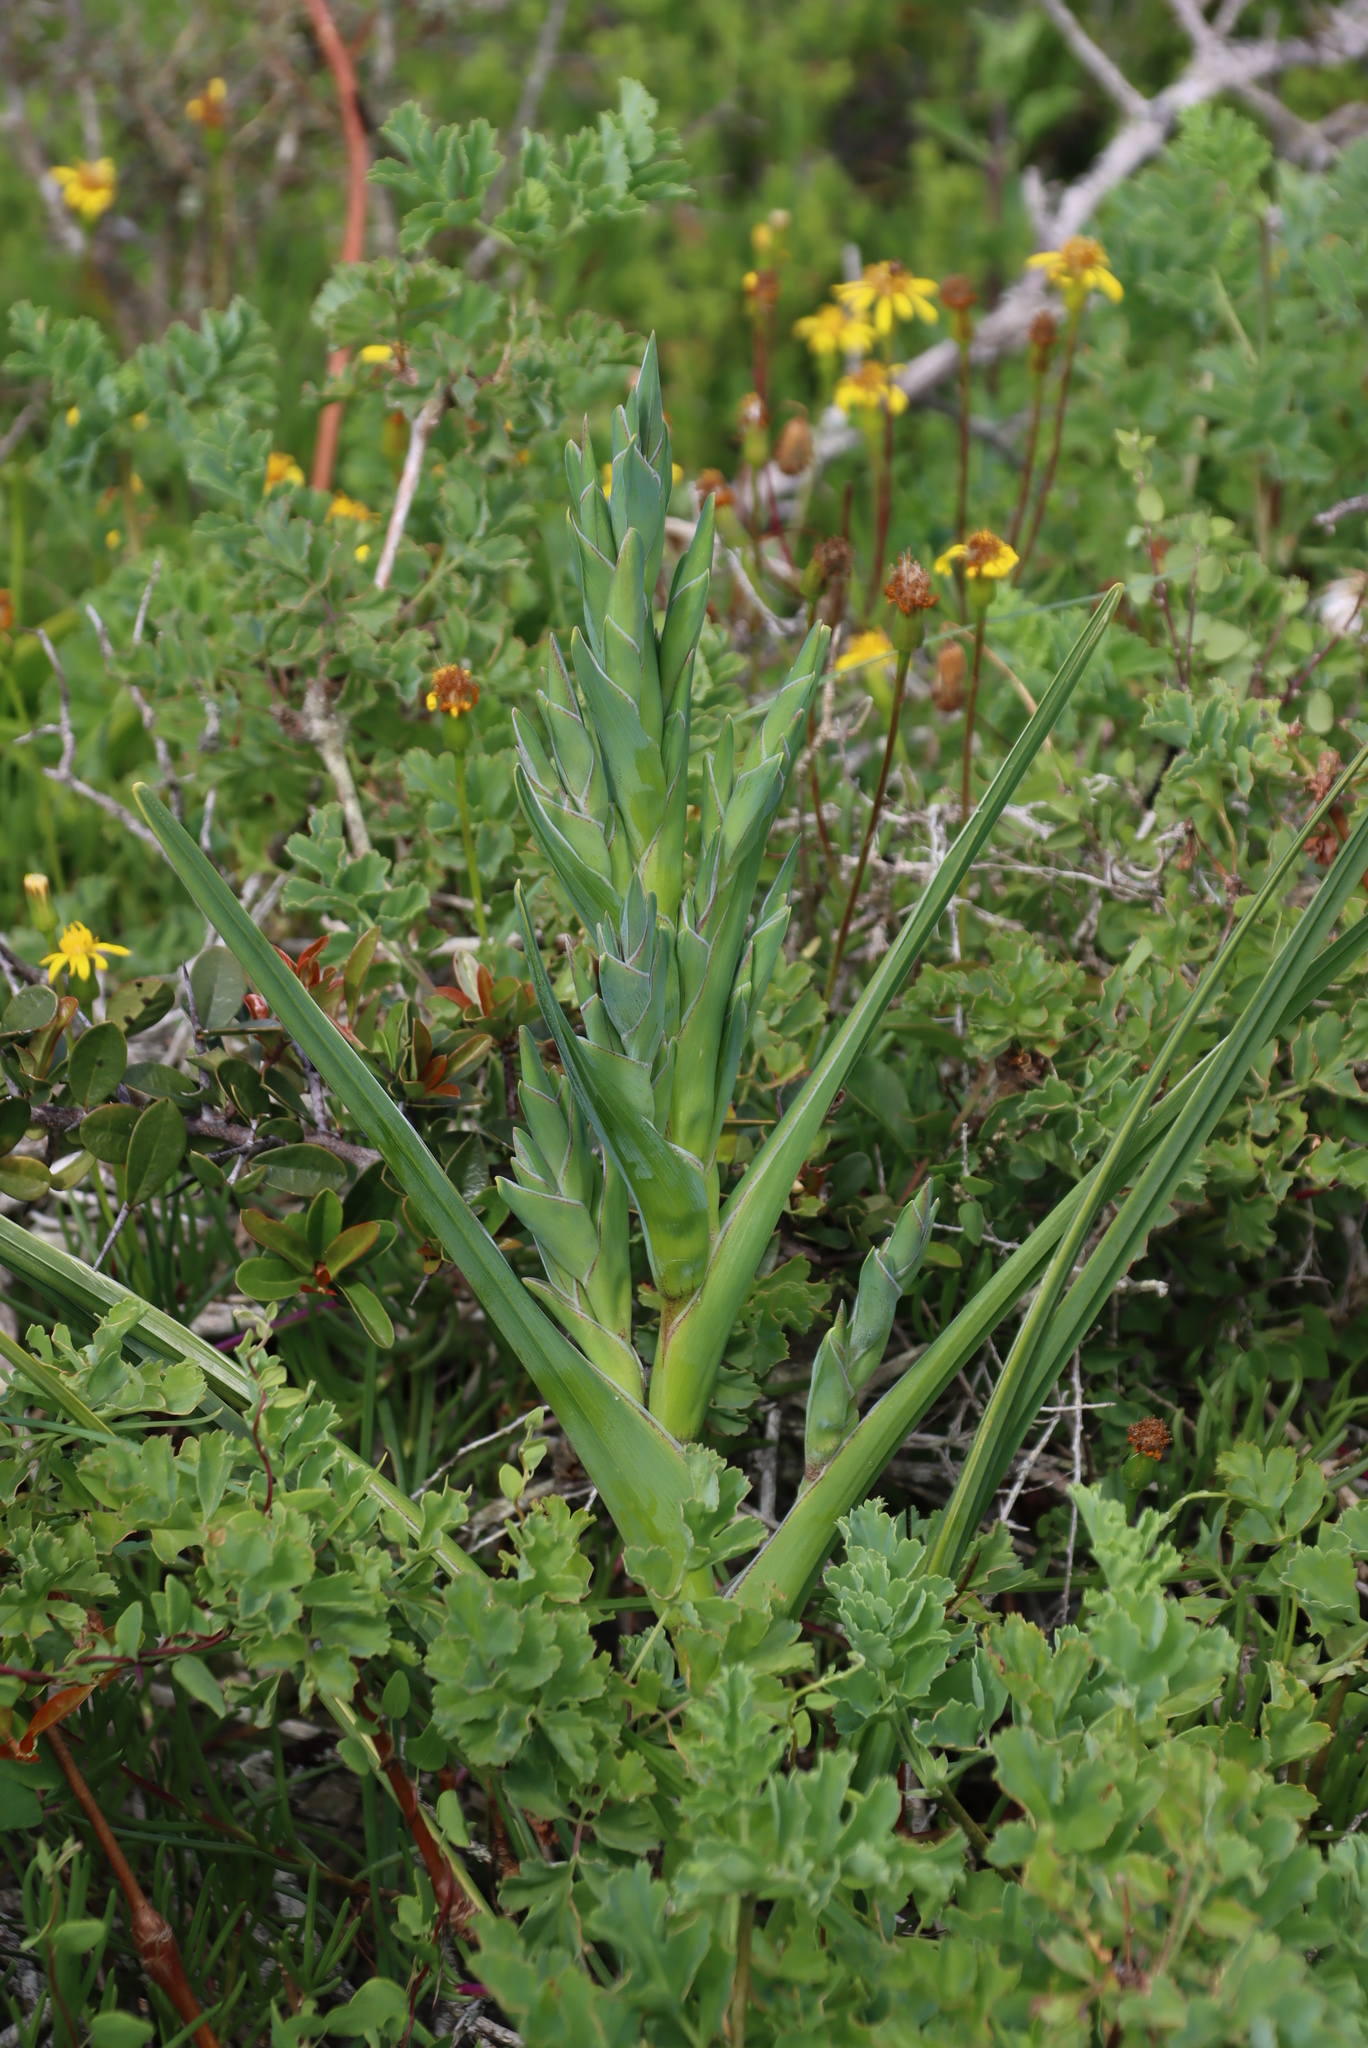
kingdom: Plantae
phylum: Tracheophyta
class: Liliopsida
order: Asparagales
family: Iridaceae
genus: Ferraria
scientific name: Ferraria crispa
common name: Black-flag
